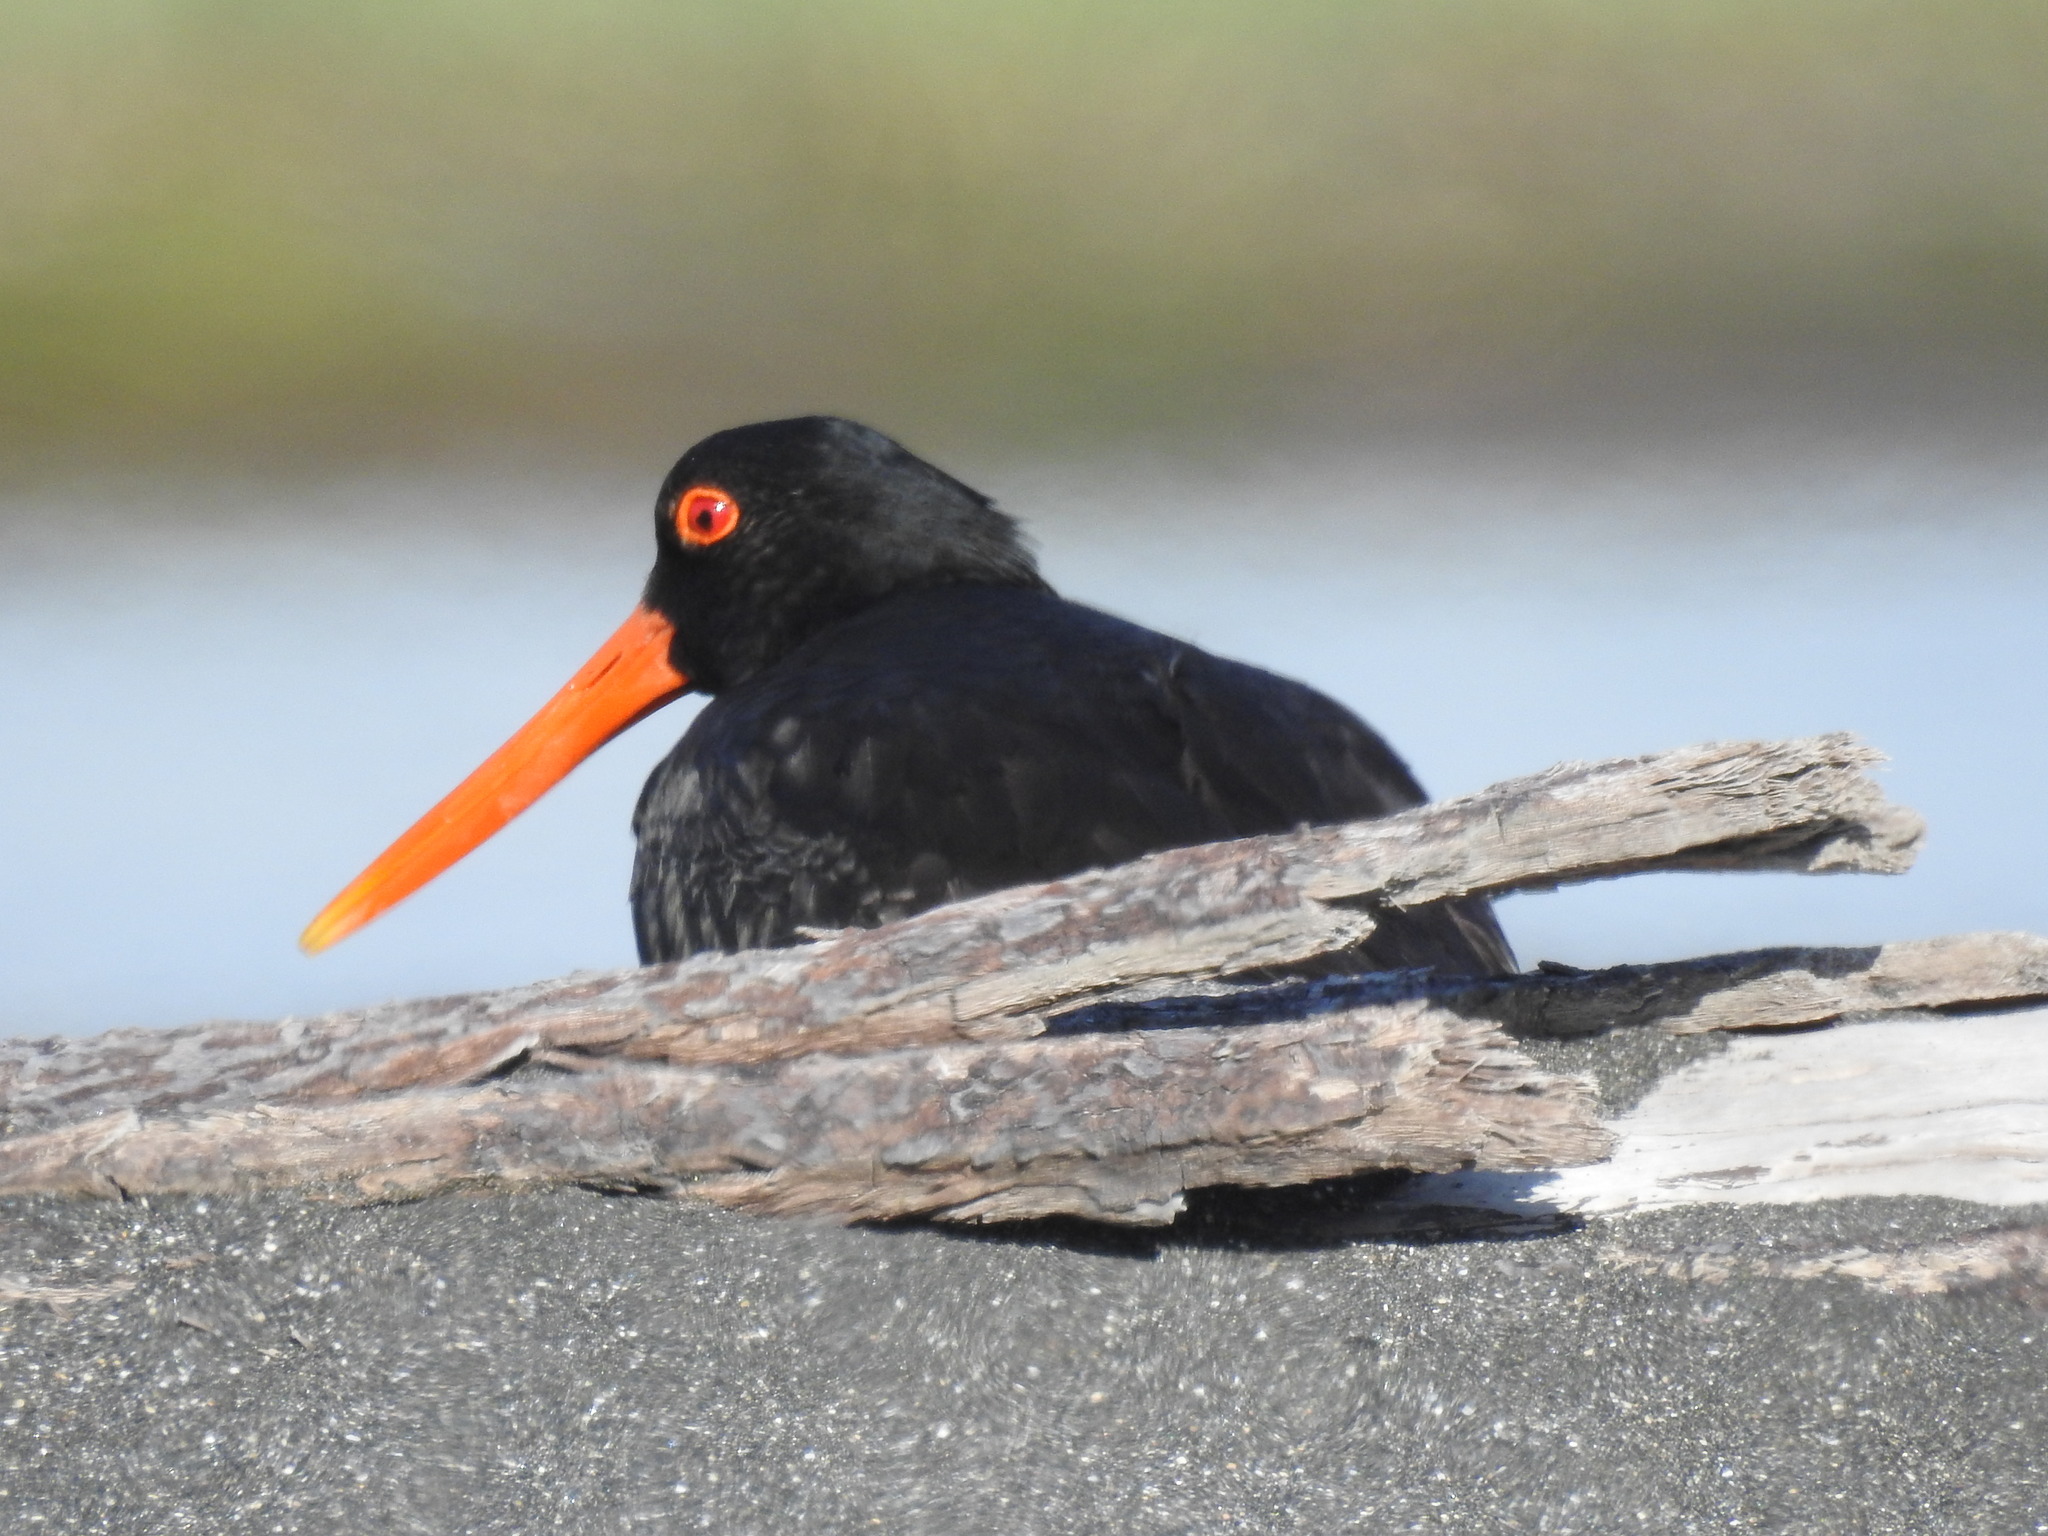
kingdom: Animalia
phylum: Chordata
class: Aves
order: Charadriiformes
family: Haematopodidae
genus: Haematopus
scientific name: Haematopus unicolor
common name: Variable oystercatcher
